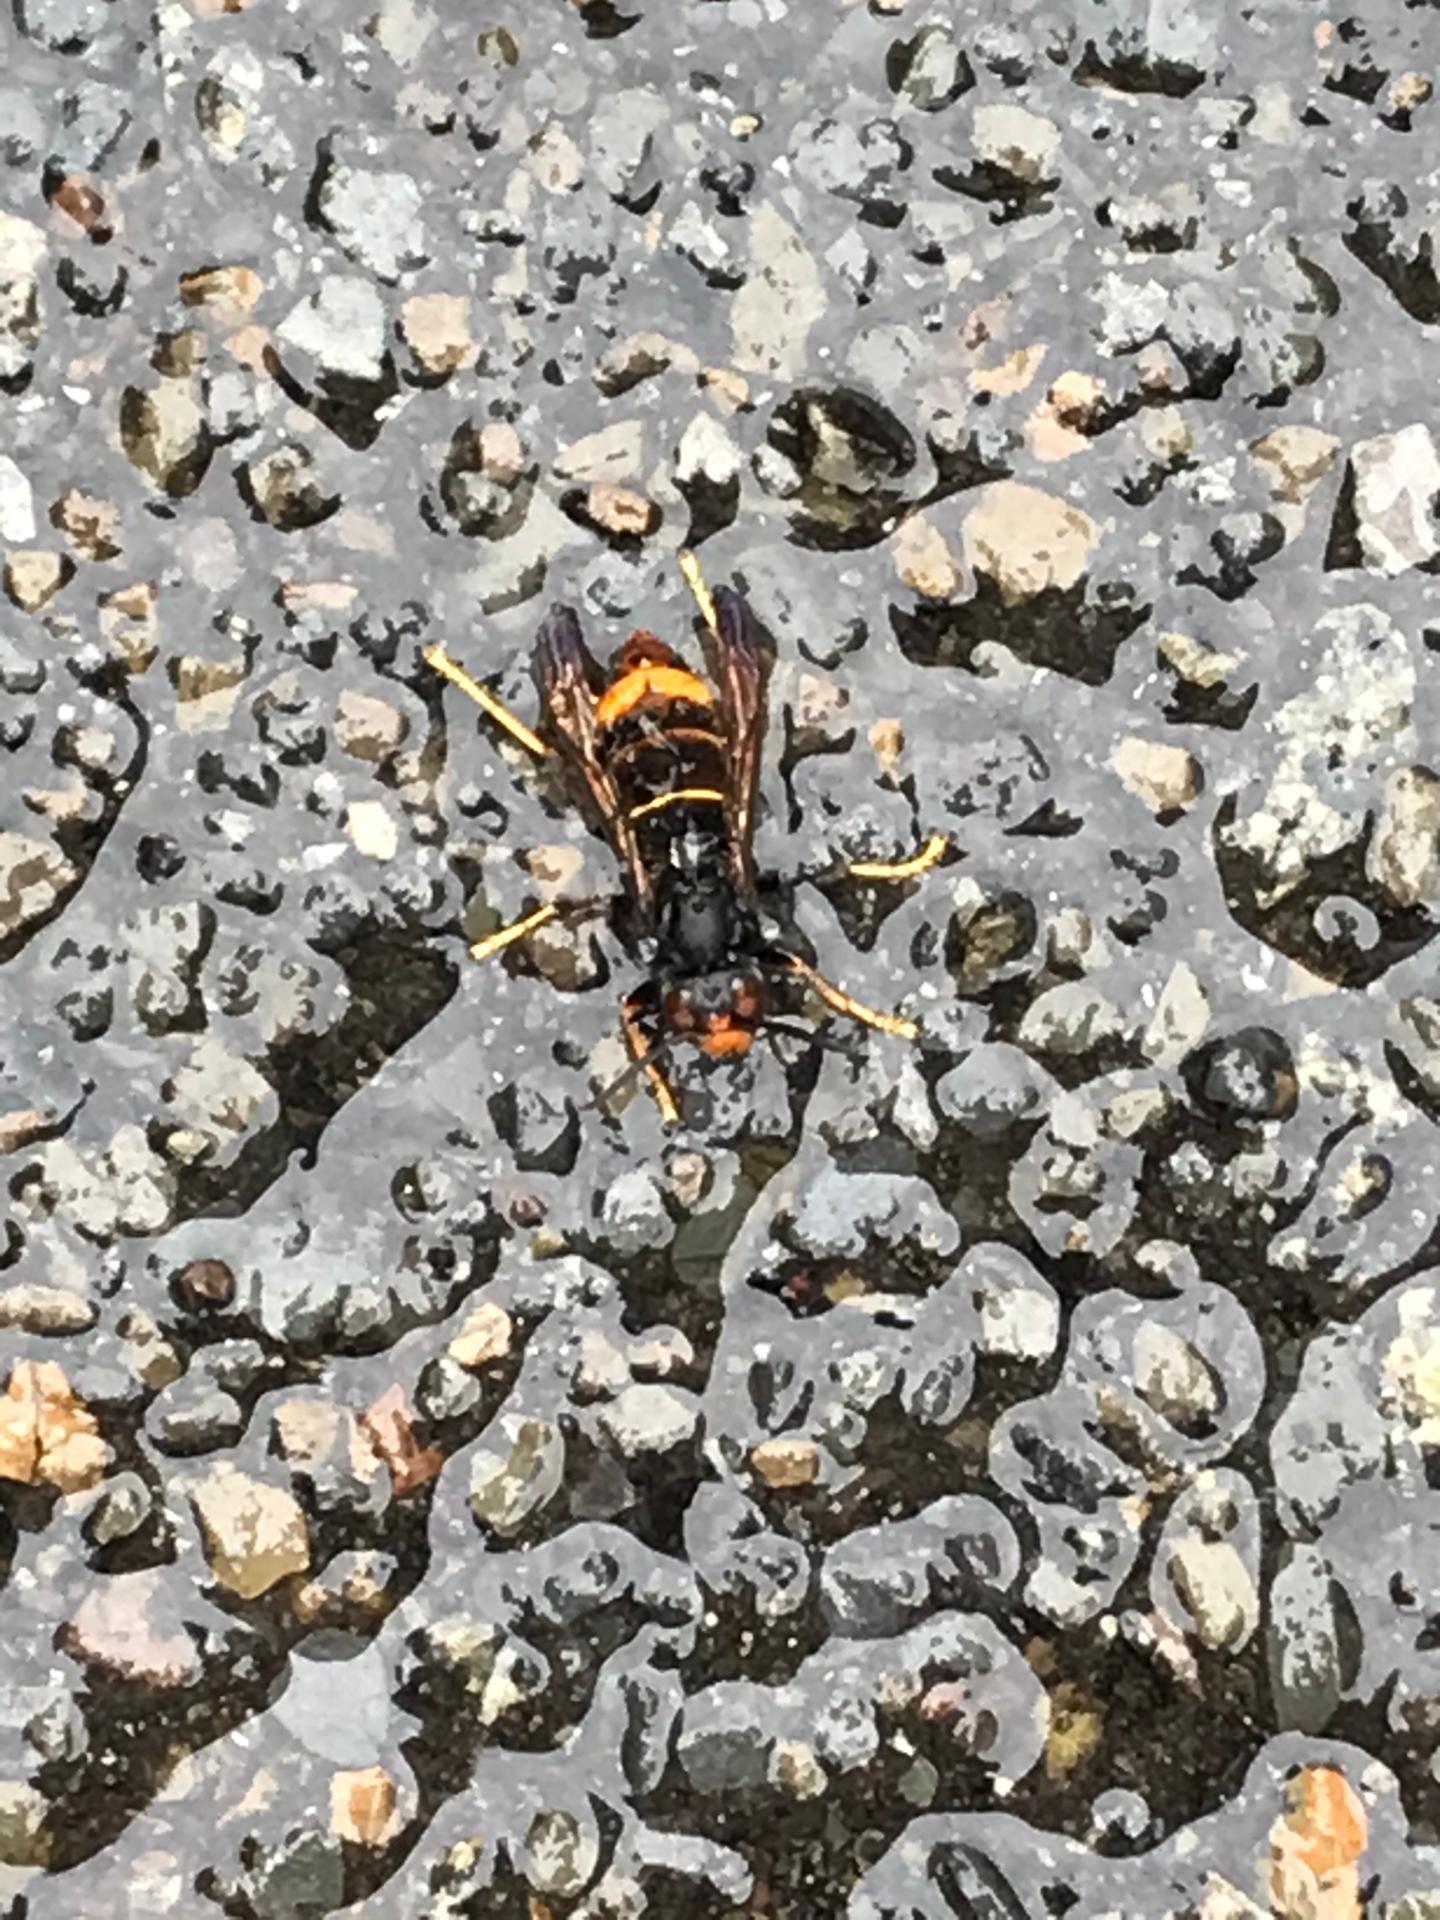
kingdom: Animalia
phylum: Arthropoda
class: Insecta
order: Hymenoptera
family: Vespidae
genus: Vespa
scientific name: Vespa velutina
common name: Asian hornet
